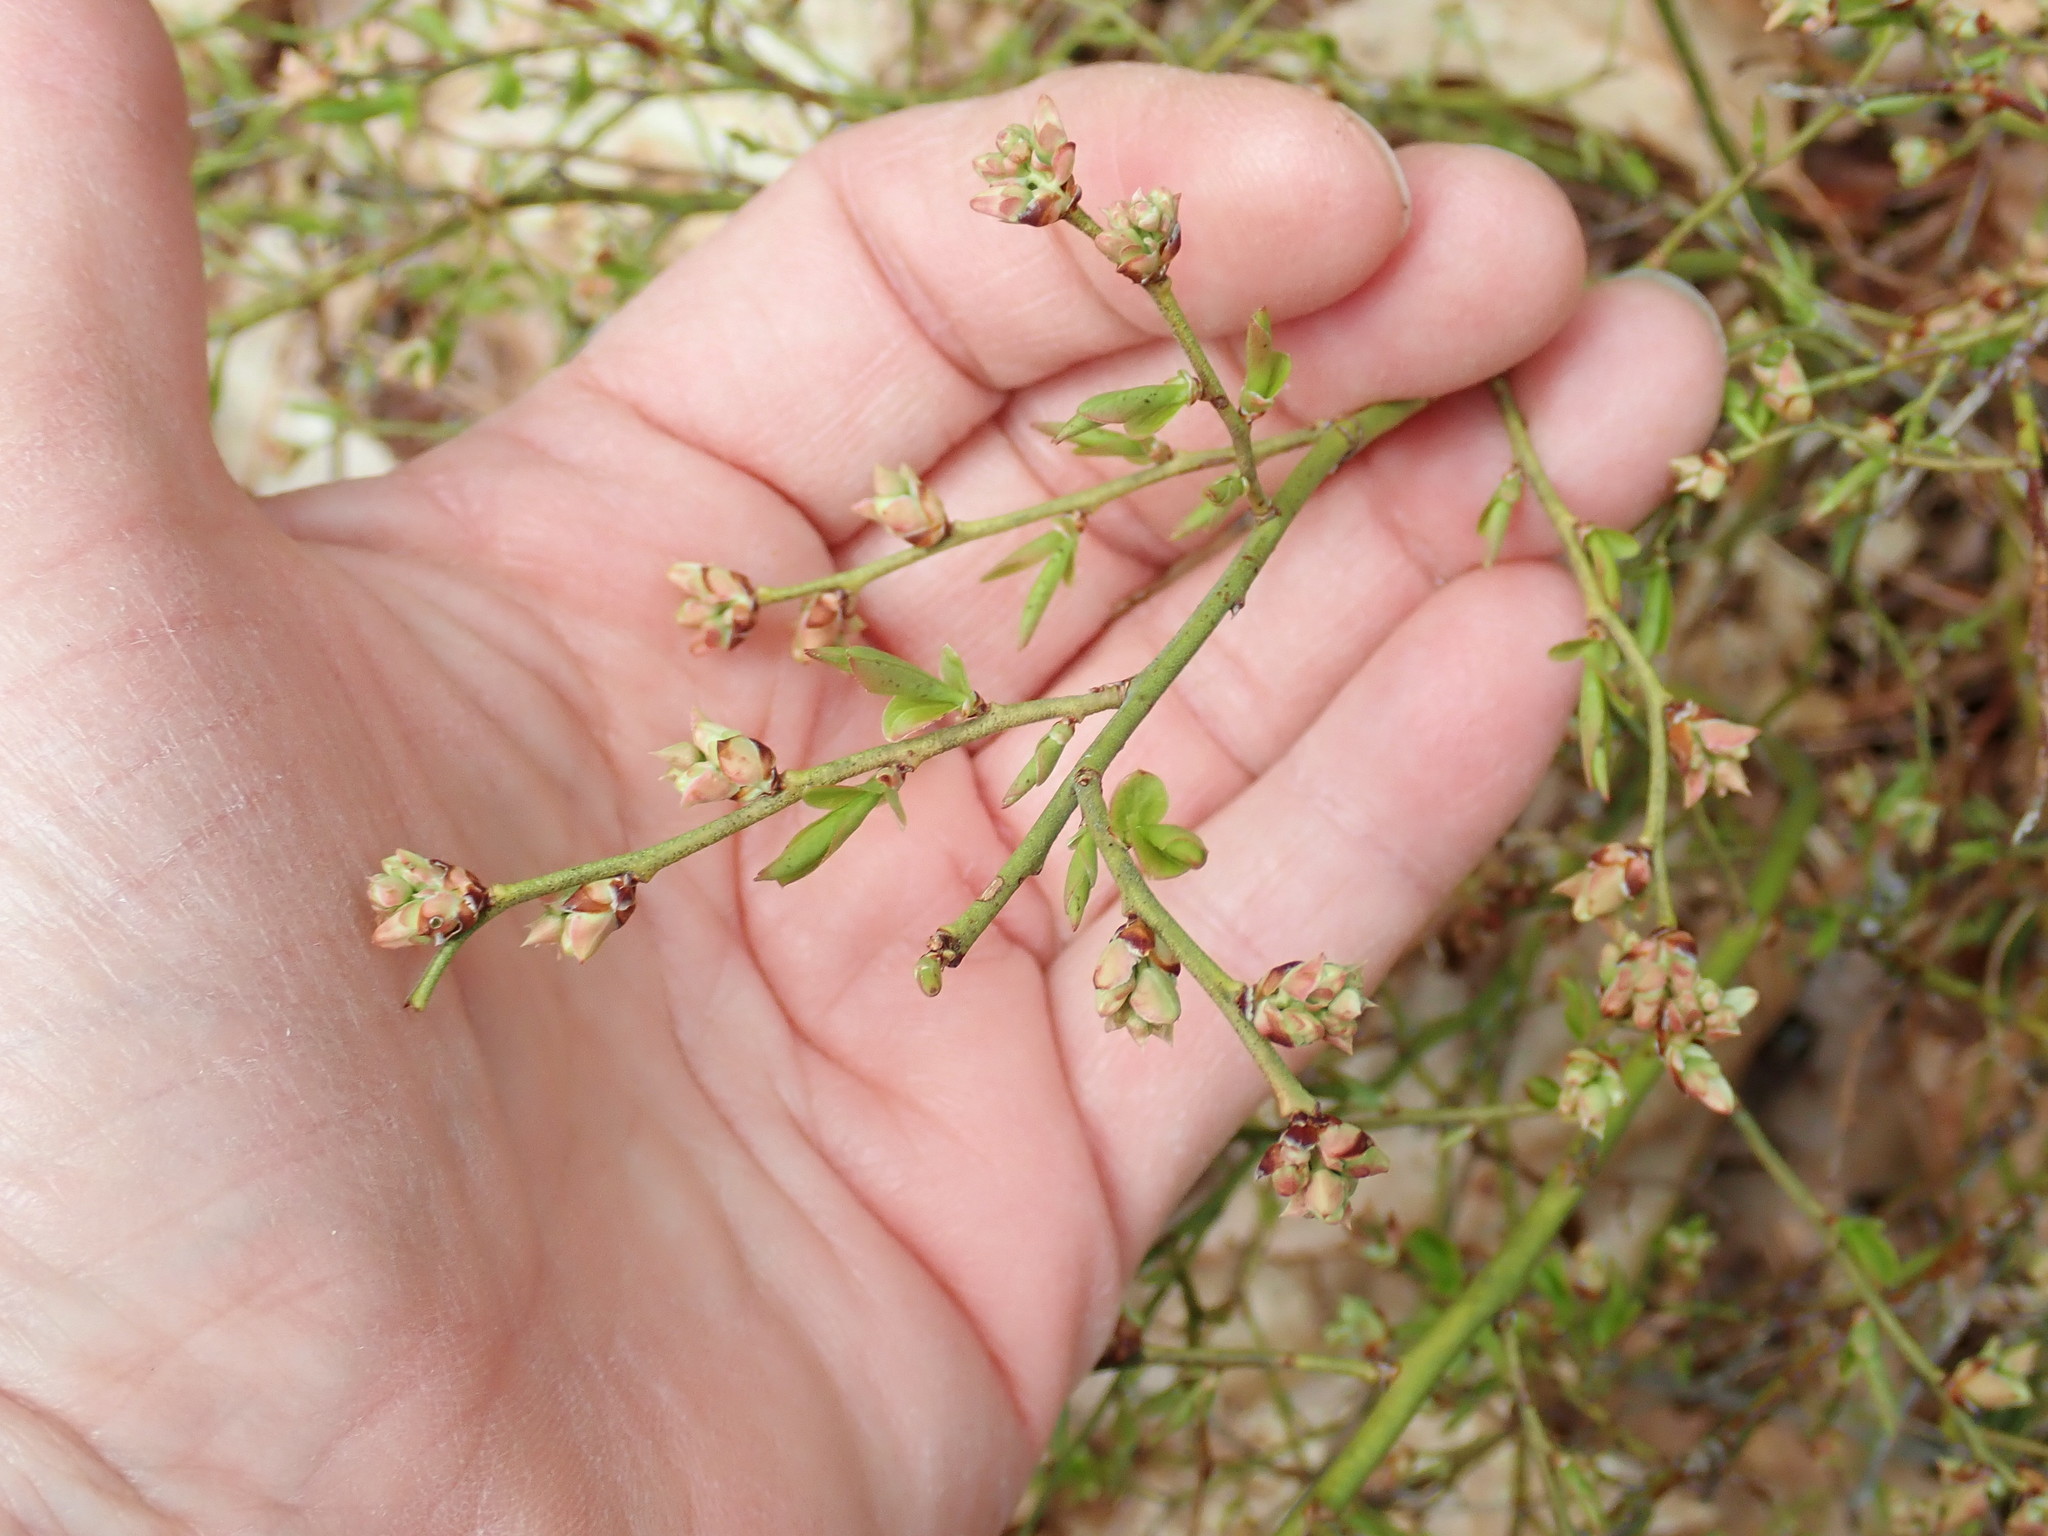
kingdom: Plantae
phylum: Tracheophyta
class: Magnoliopsida
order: Ericales
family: Ericaceae
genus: Vaccinium
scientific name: Vaccinium angustifolium
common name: Early lowbush blueberry
